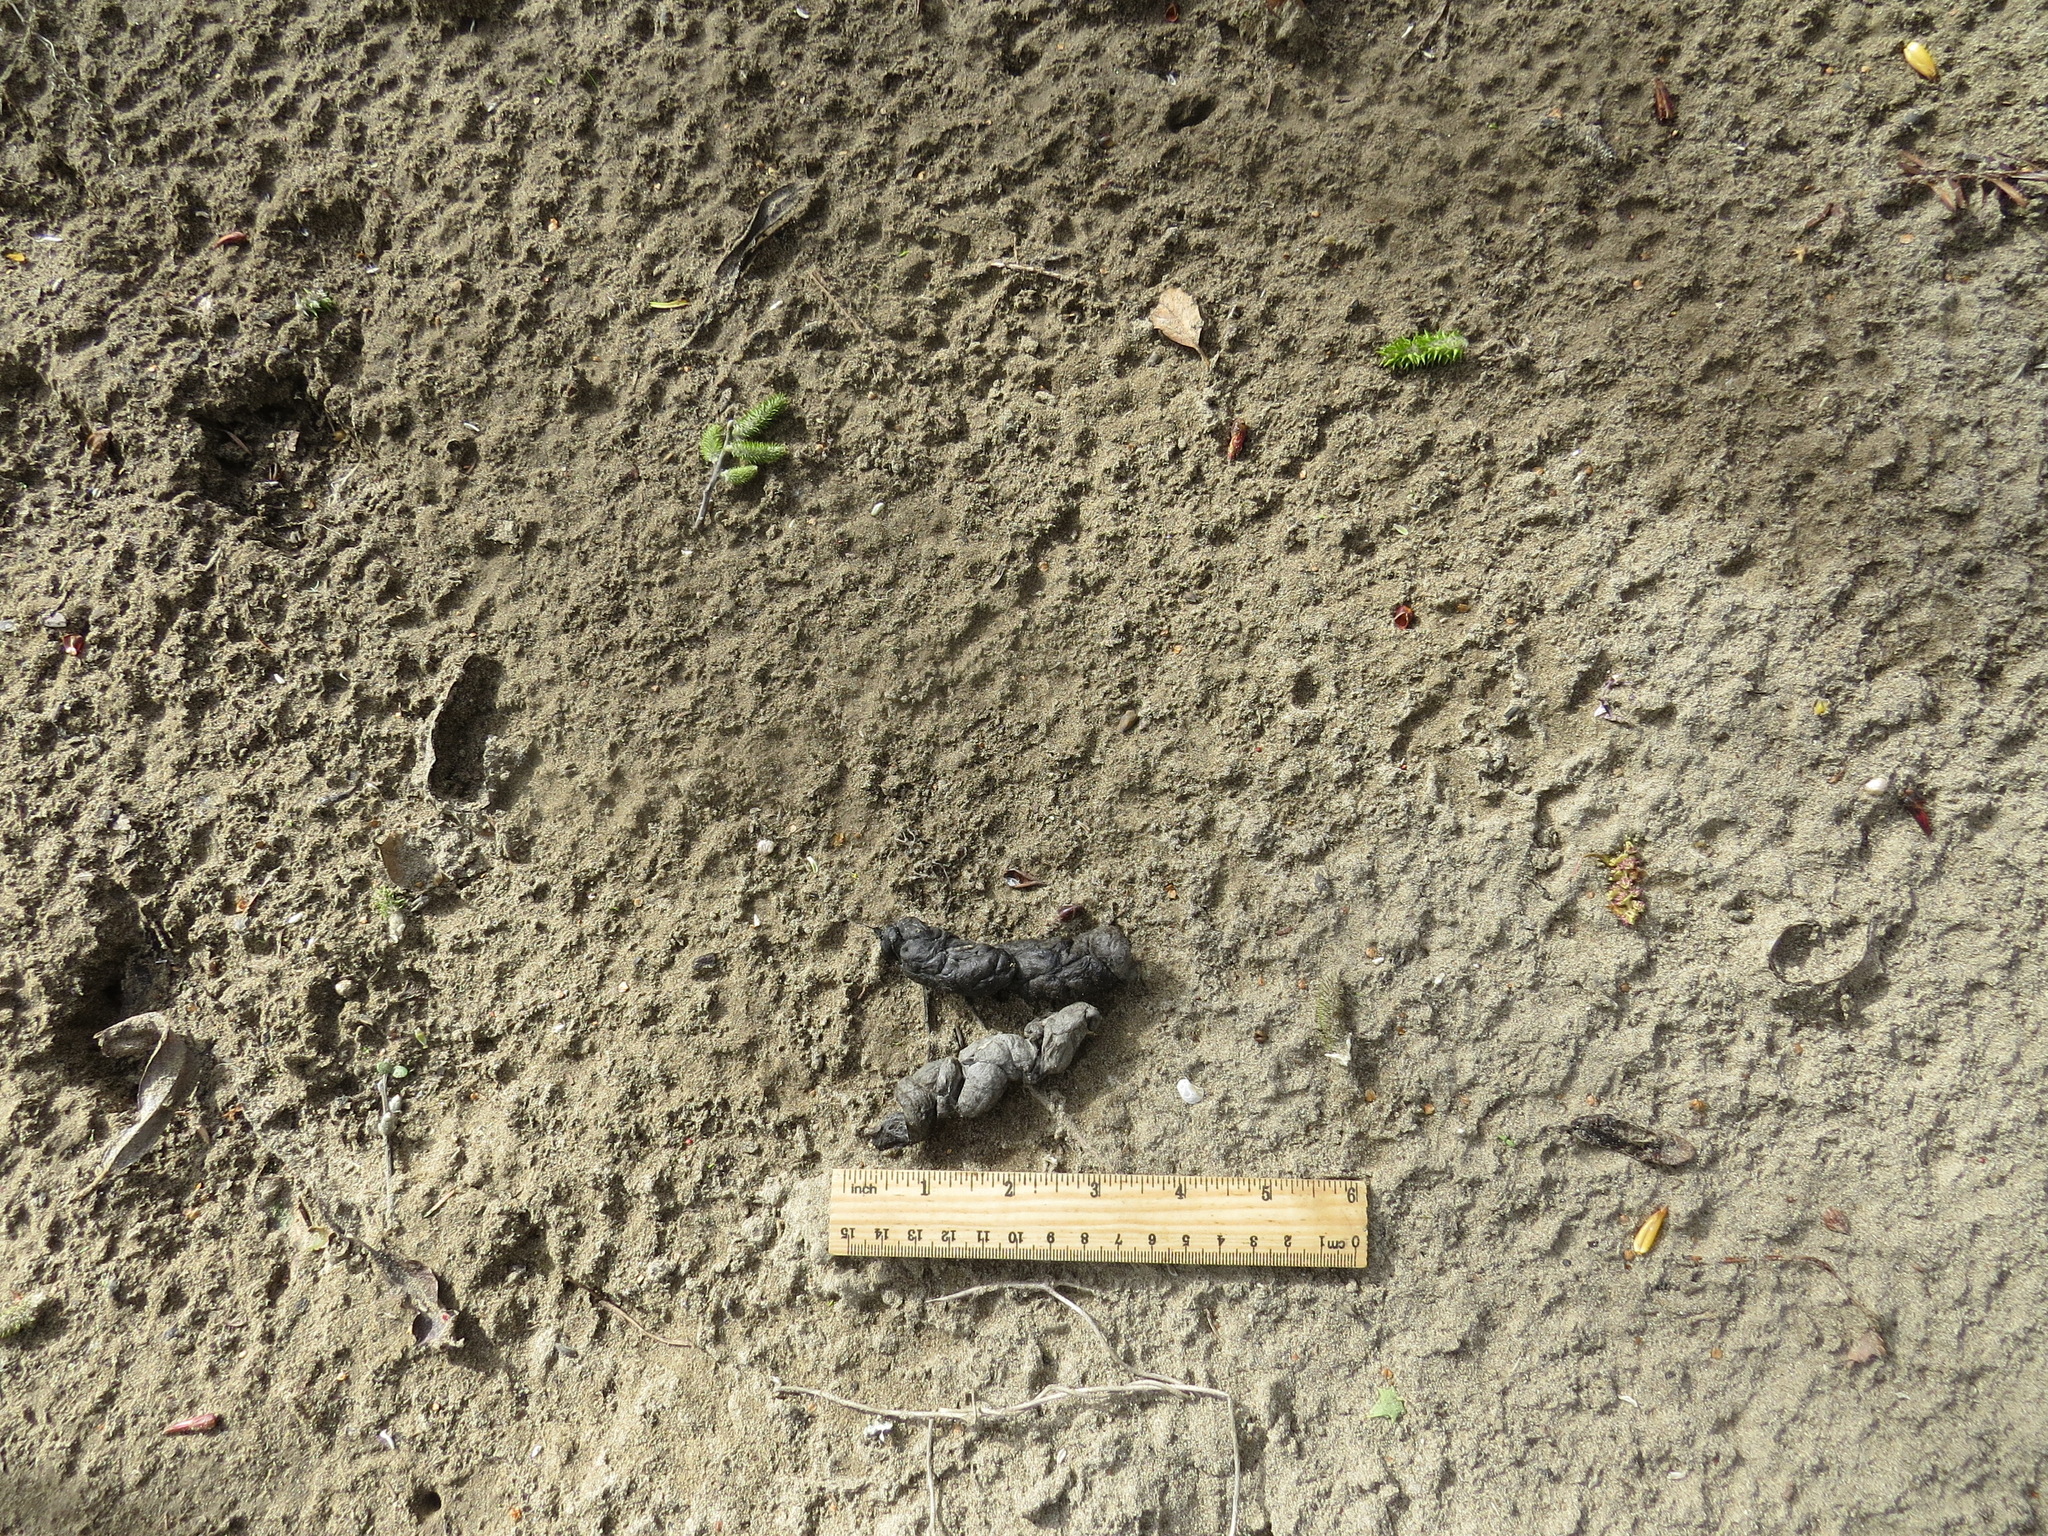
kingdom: Animalia
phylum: Chordata
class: Mammalia
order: Carnivora
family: Canidae
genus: Urocyon
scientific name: Urocyon cinereoargenteus
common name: Gray fox
